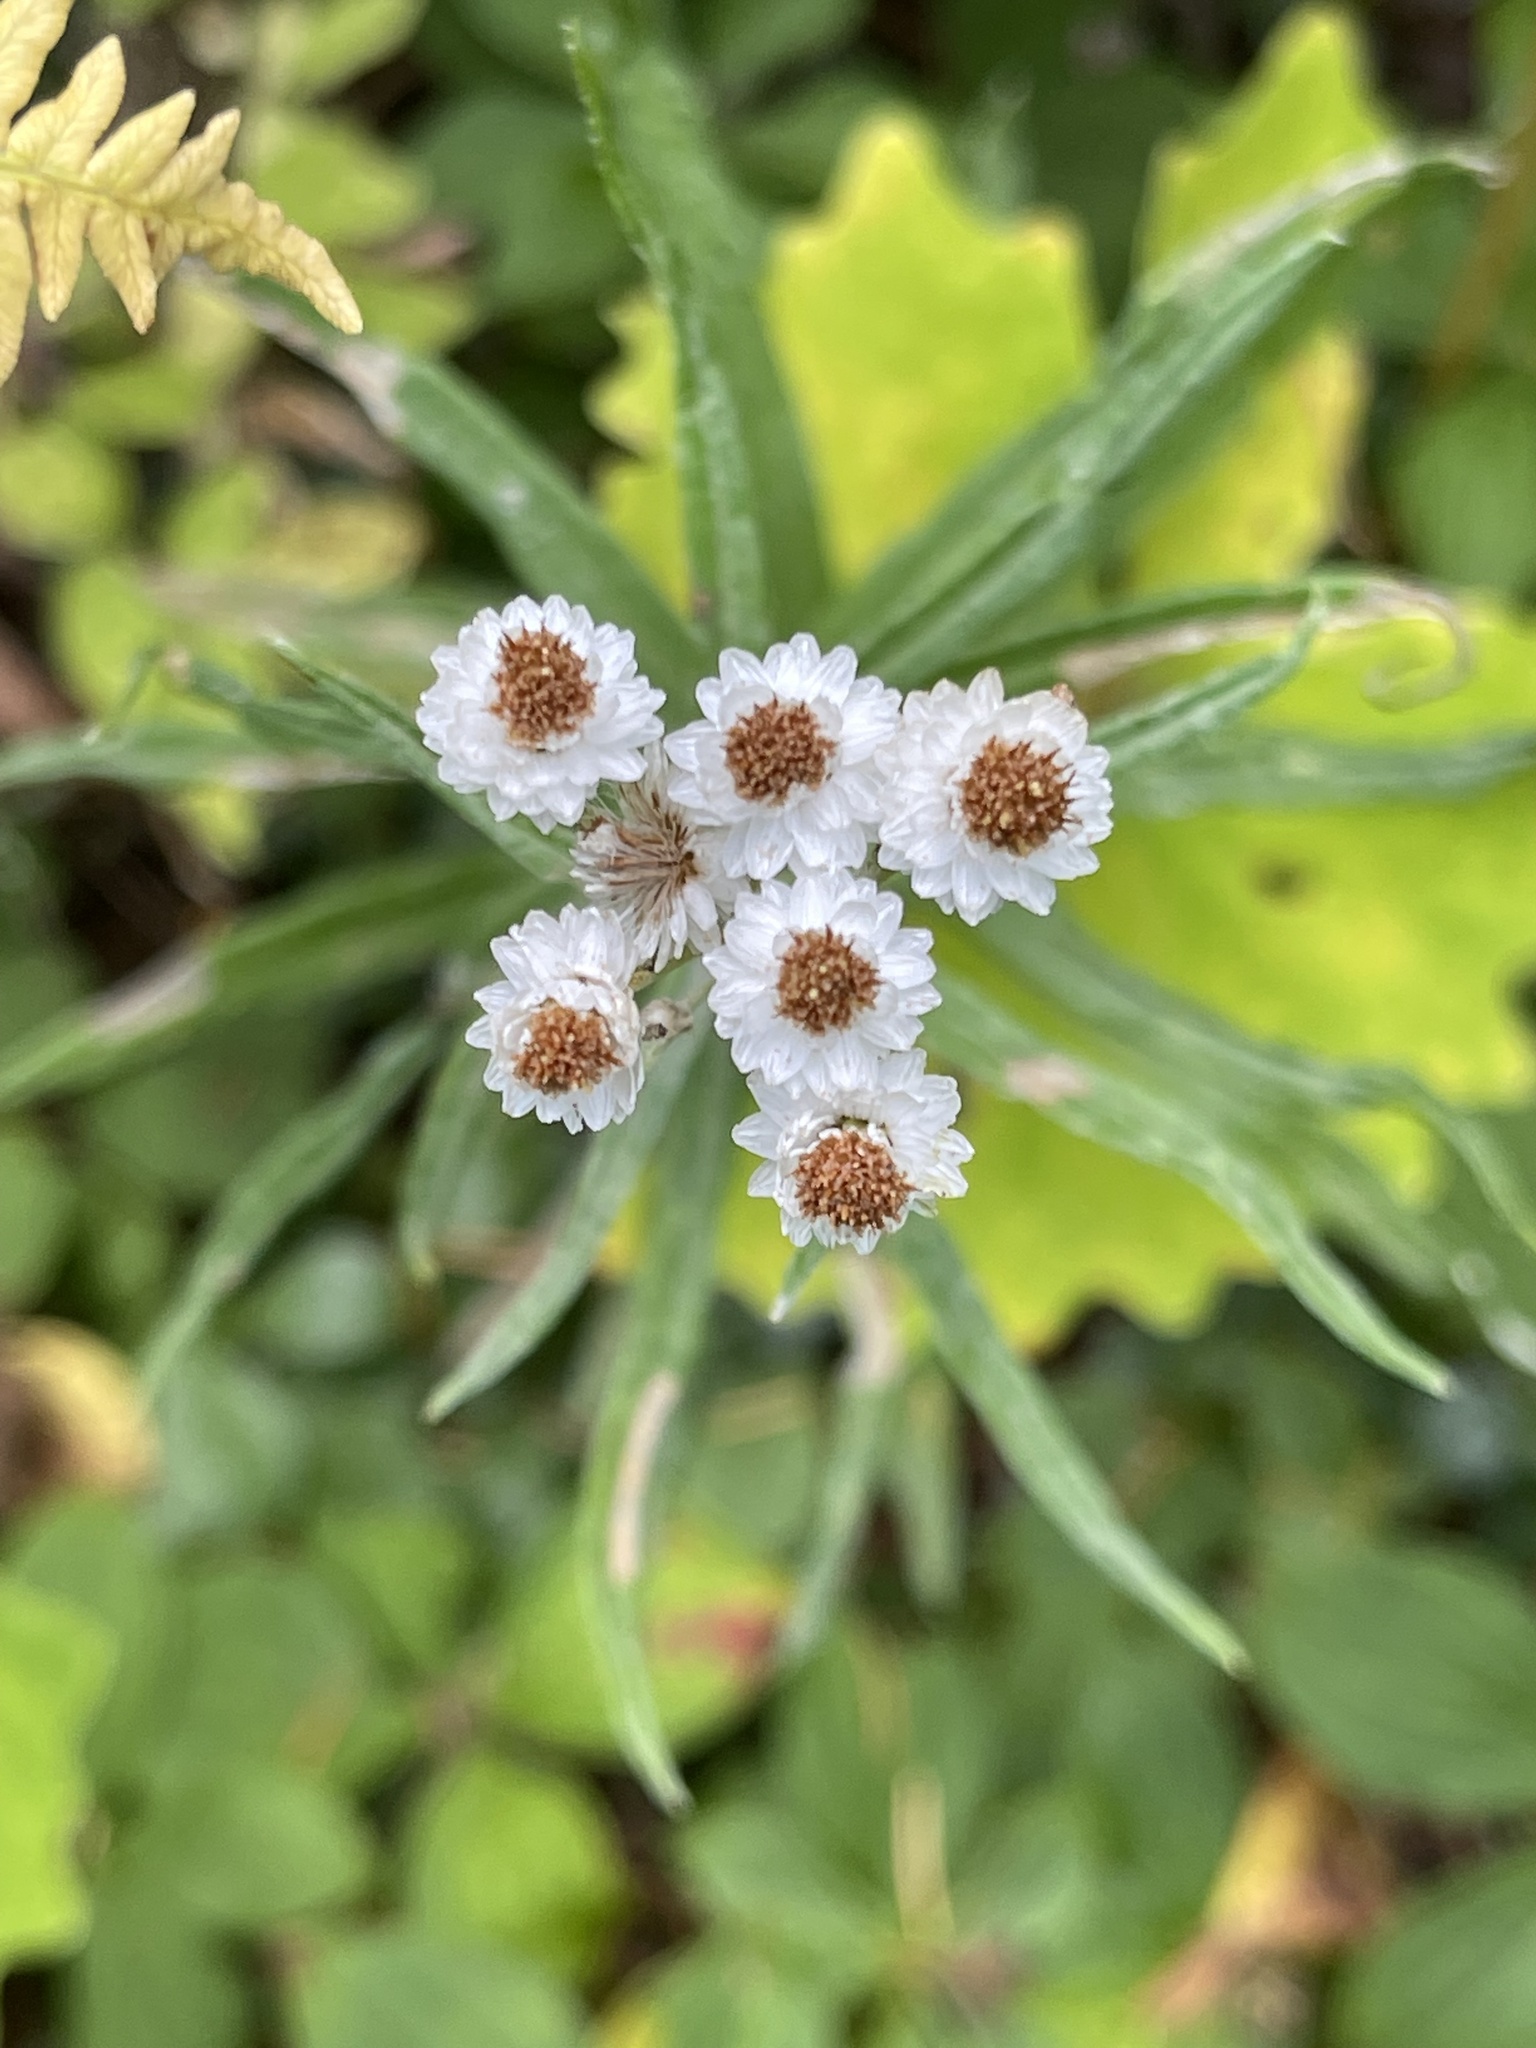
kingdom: Plantae
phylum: Tracheophyta
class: Magnoliopsida
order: Asterales
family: Asteraceae
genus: Anaphalis
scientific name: Anaphalis margaritacea
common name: Pearly everlasting
